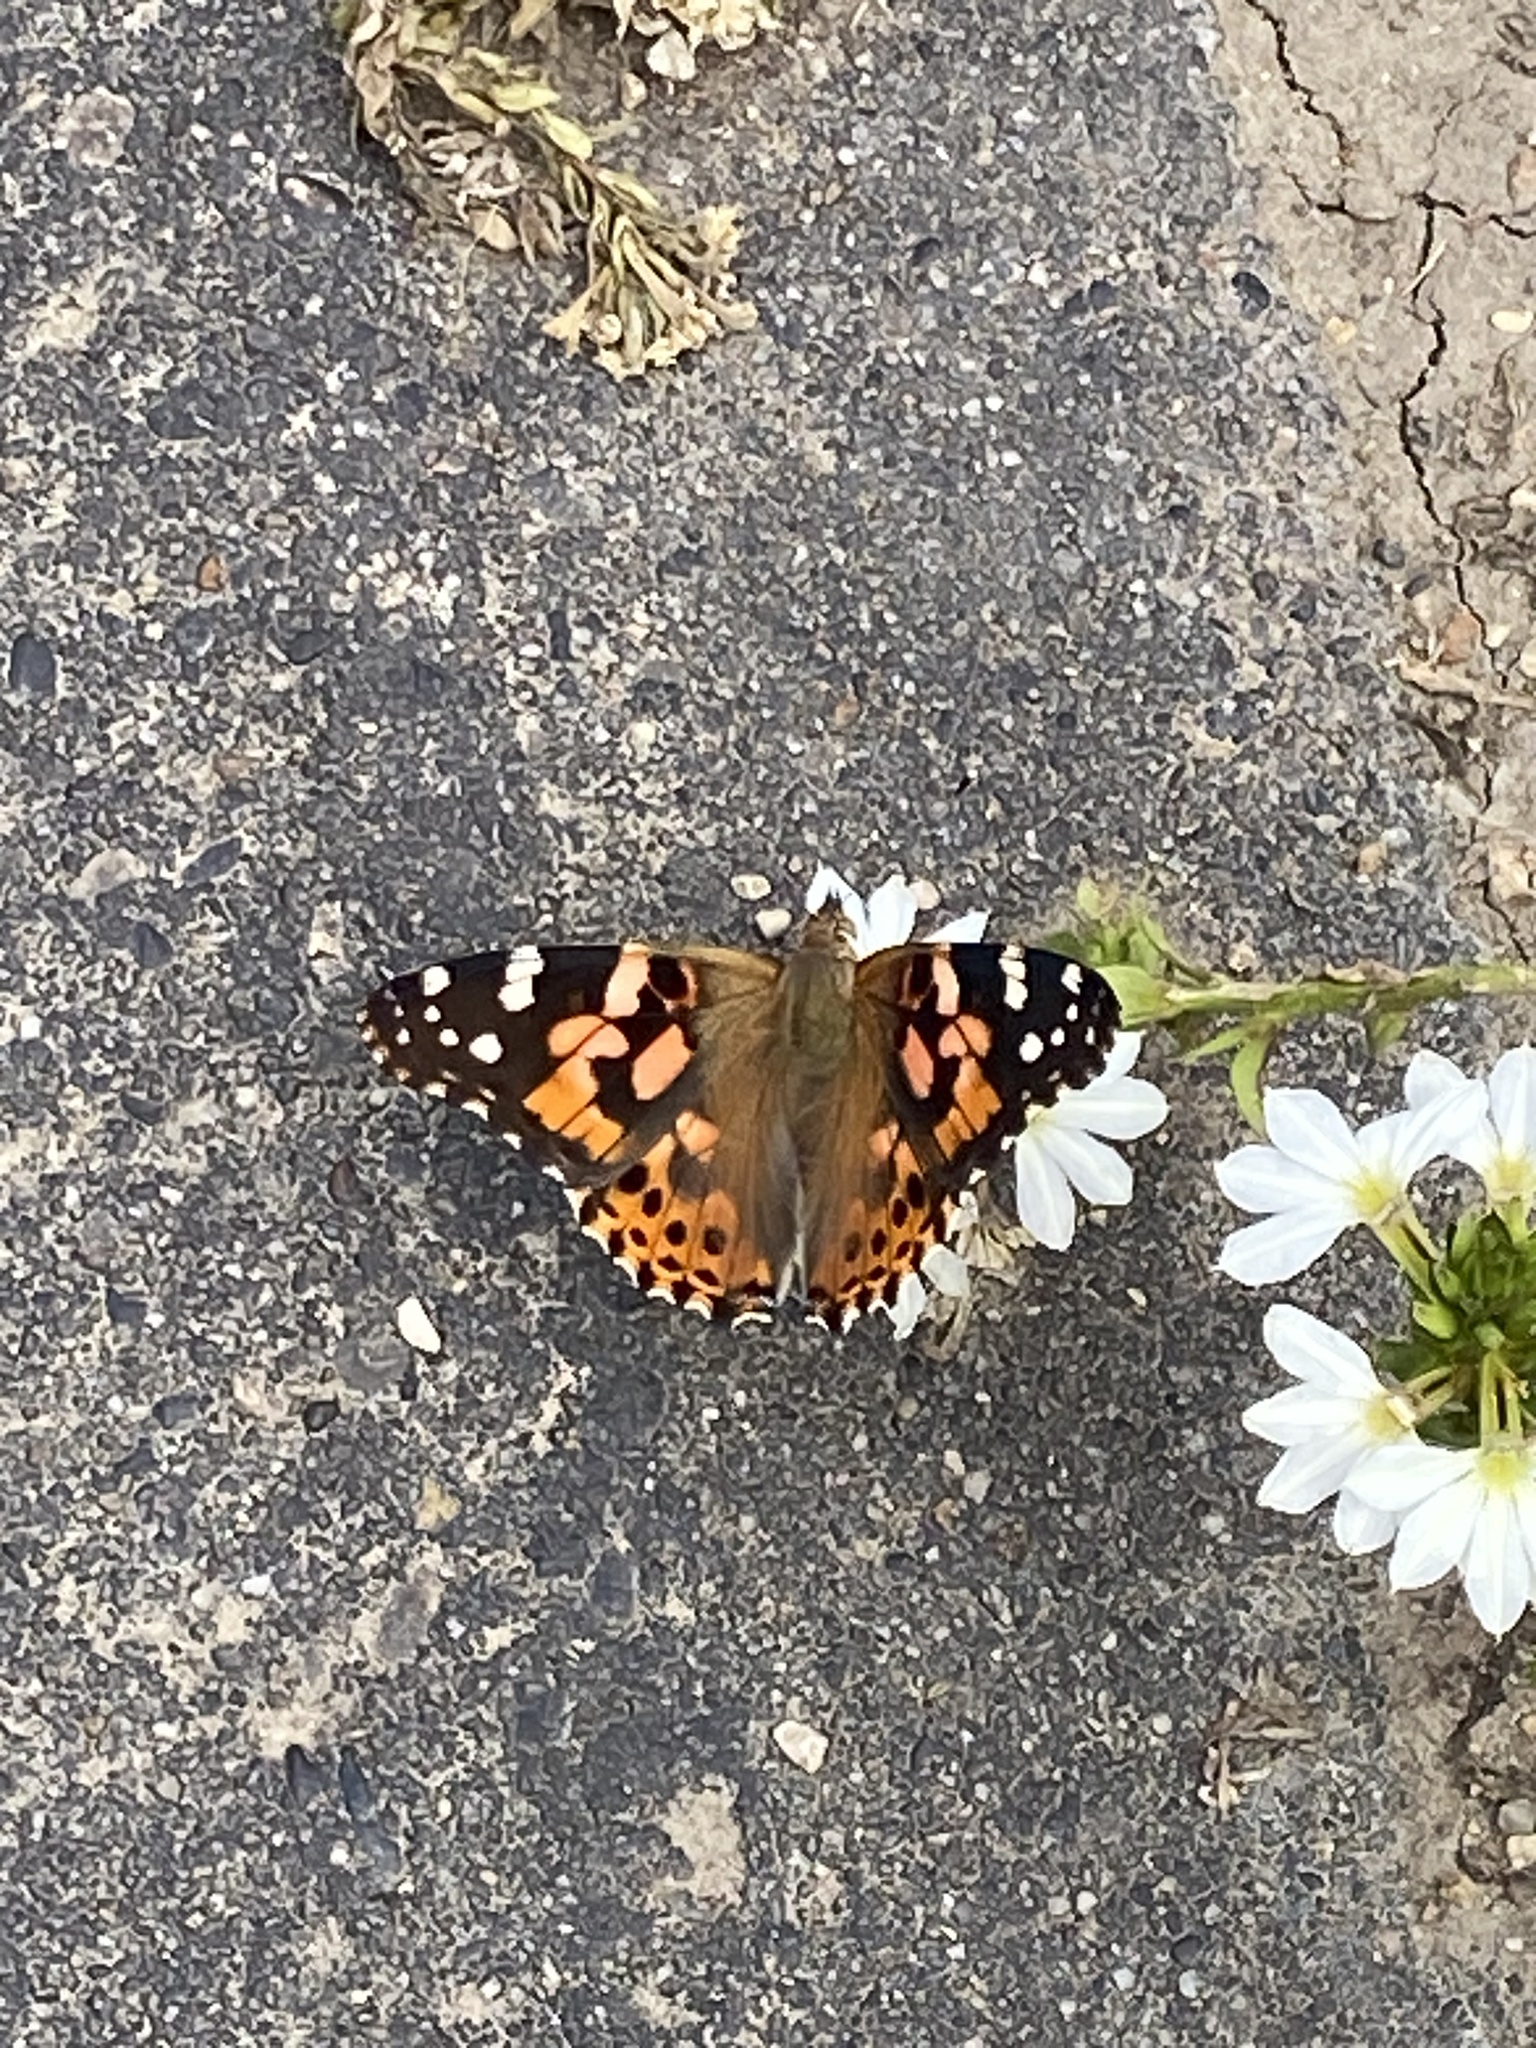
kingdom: Animalia
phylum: Arthropoda
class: Insecta
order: Lepidoptera
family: Nymphalidae
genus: Vanessa
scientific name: Vanessa cardui
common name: Painted lady
